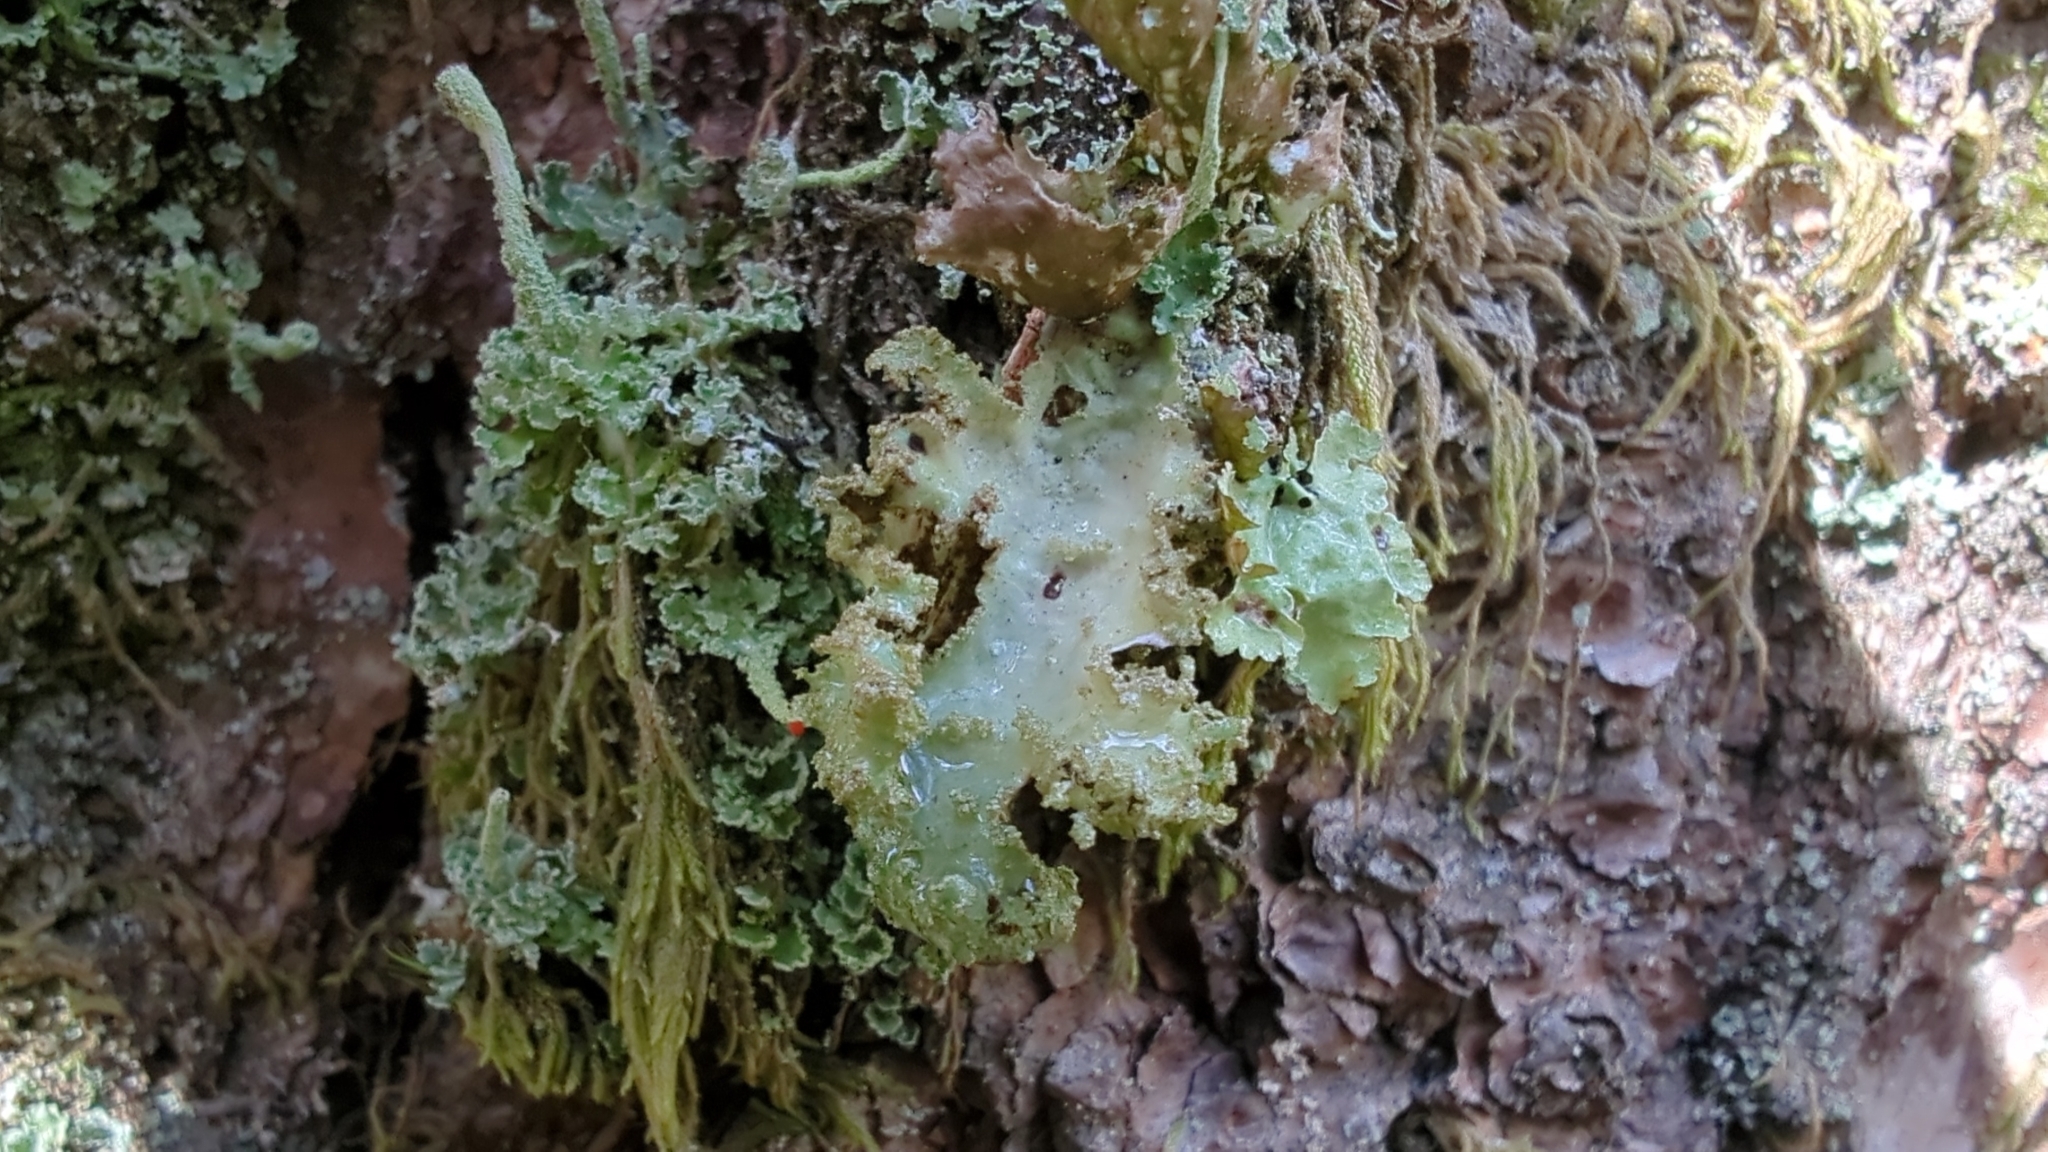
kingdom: Fungi
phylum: Ascomycota
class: Lecanoromycetes
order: Lecanorales
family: Parmeliaceae
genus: Platismatia
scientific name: Platismatia glauca
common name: Varied rag lichen
